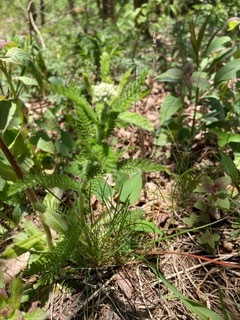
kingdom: Plantae
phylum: Tracheophyta
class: Magnoliopsida
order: Asterales
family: Asteraceae
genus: Achillea
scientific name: Achillea millefolium
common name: Yarrow
